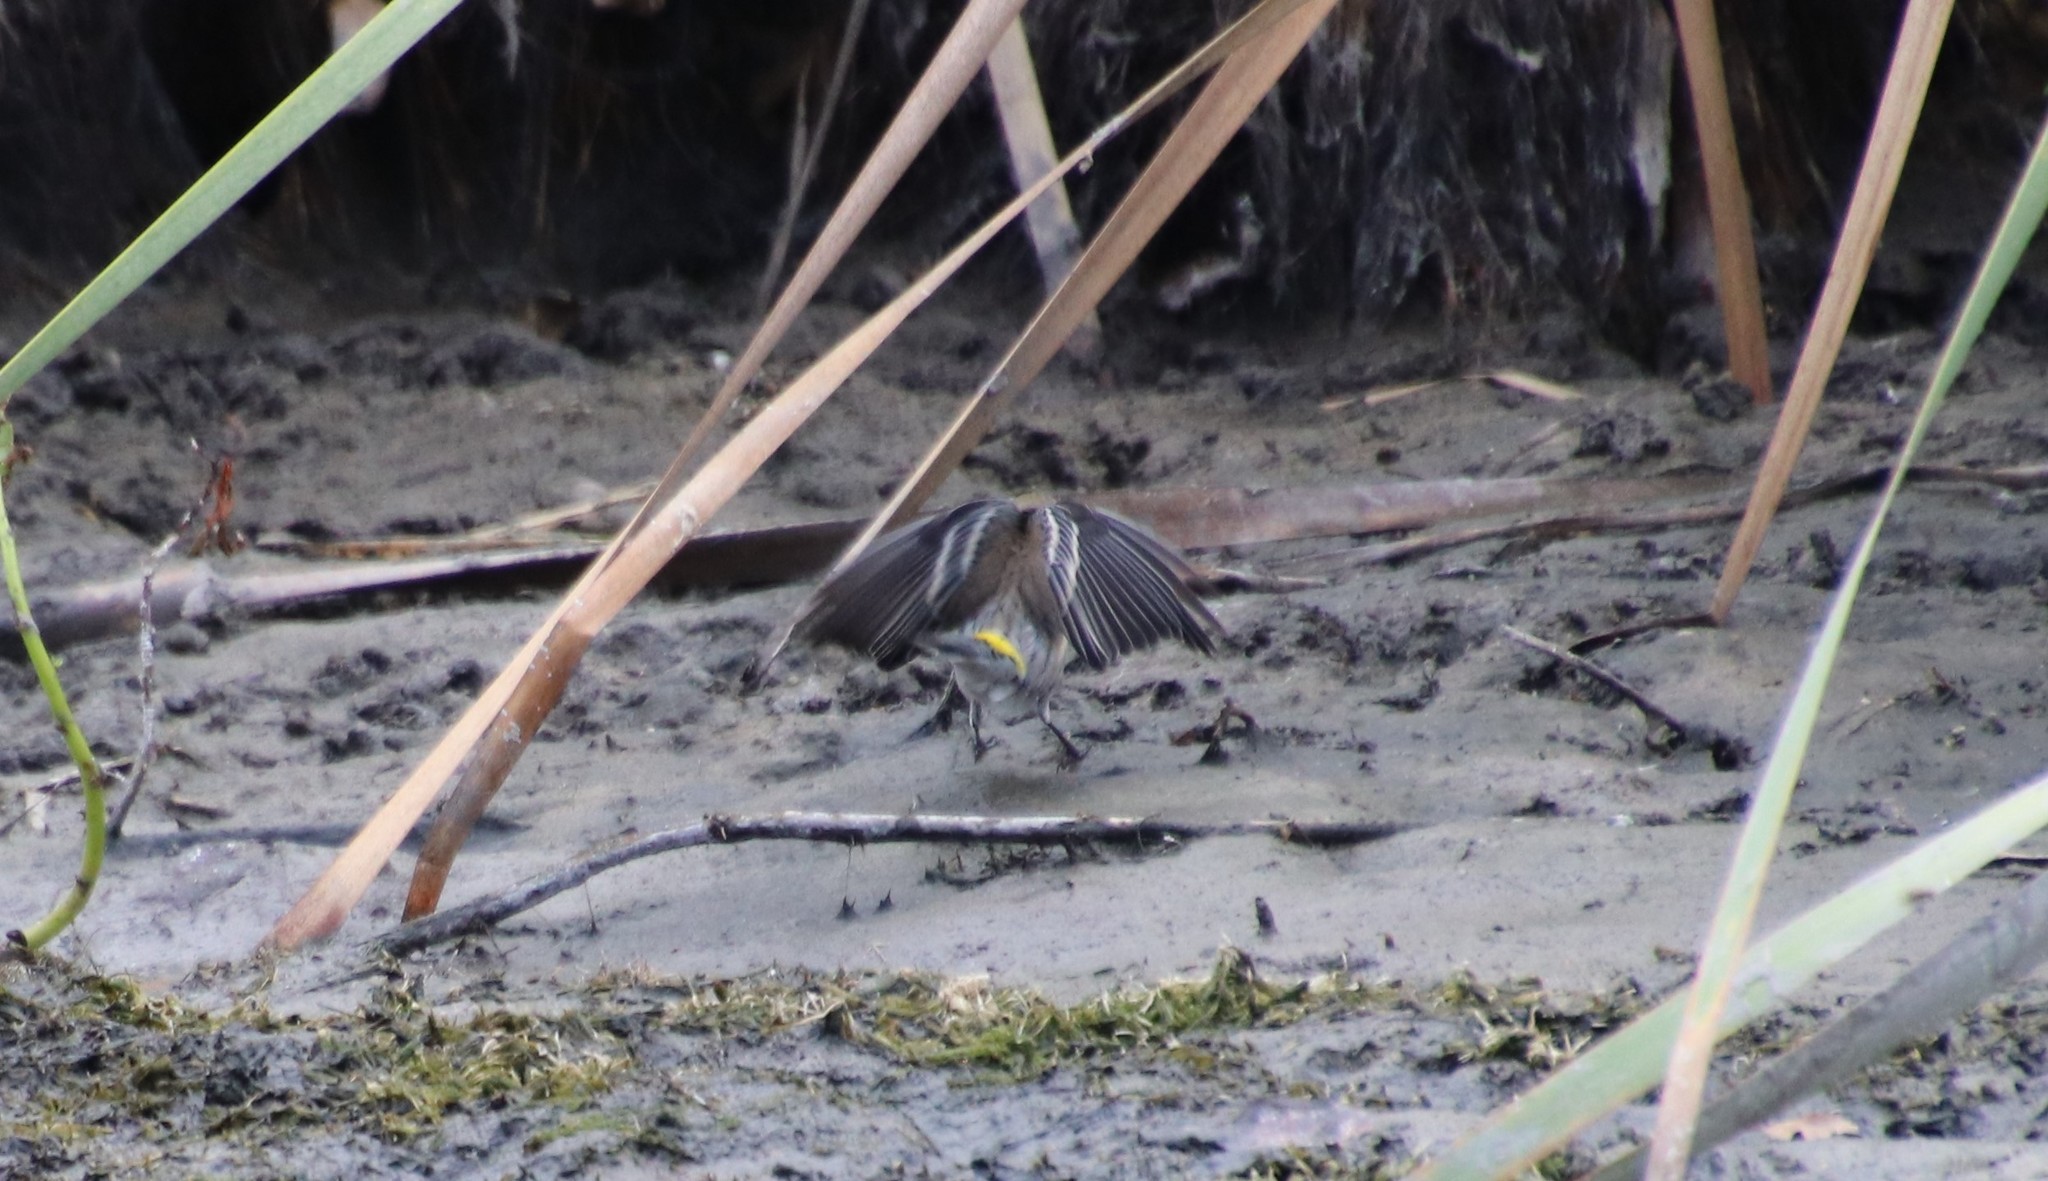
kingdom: Animalia
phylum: Chordata
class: Aves
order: Passeriformes
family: Parulidae
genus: Setophaga
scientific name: Setophaga auduboni
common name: Audubon's warbler
